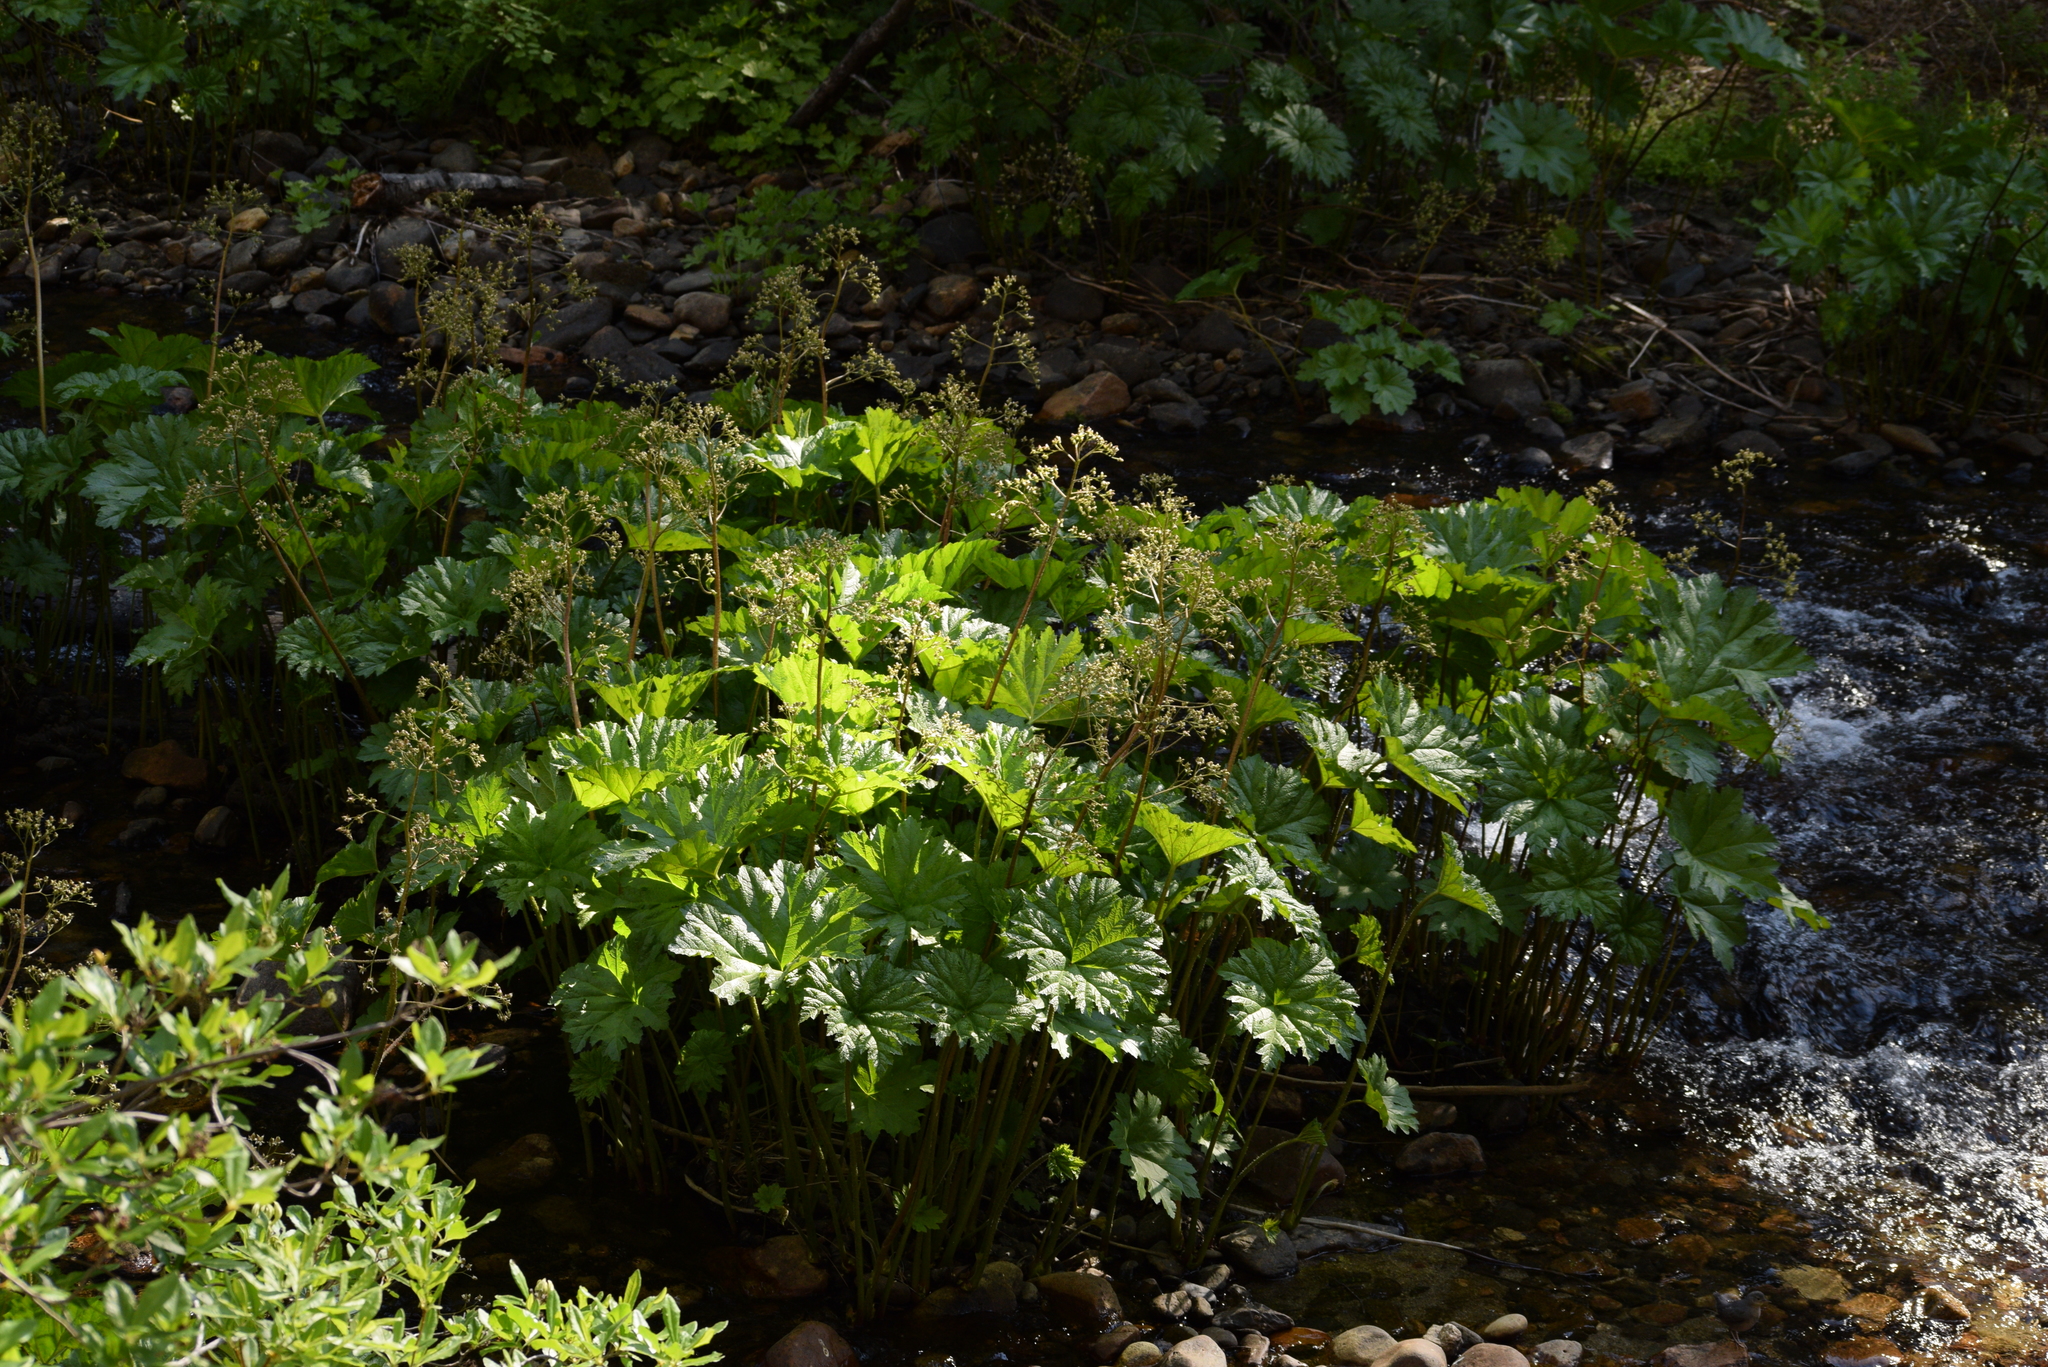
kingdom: Plantae
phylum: Tracheophyta
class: Magnoliopsida
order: Saxifragales
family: Saxifragaceae
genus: Darmera
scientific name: Darmera peltata
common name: Indian-rhubarb
